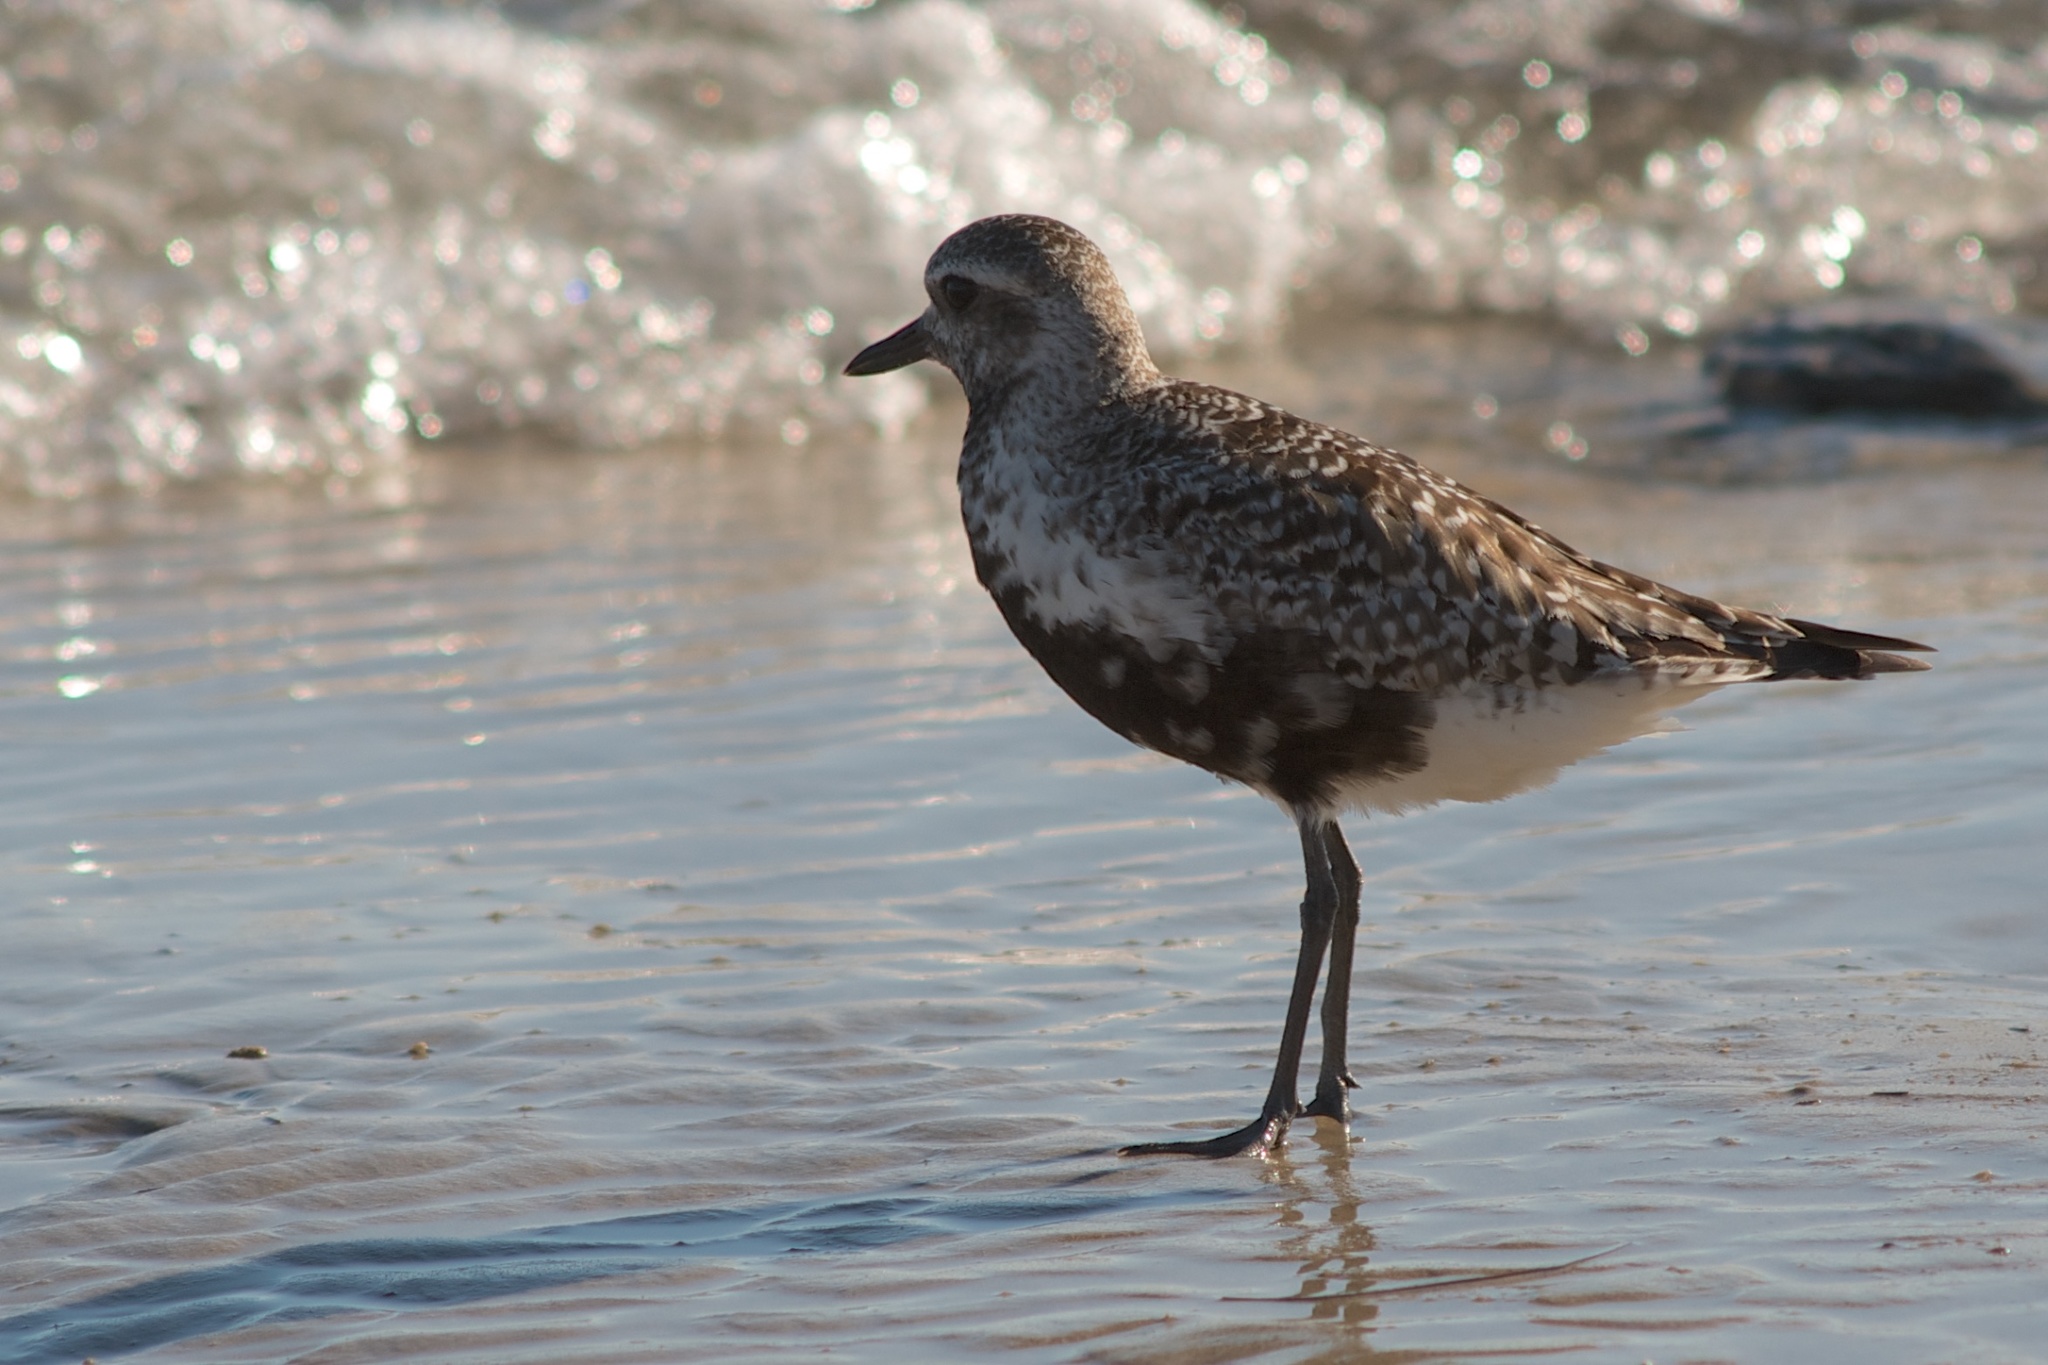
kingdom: Animalia
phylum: Chordata
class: Aves
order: Charadriiformes
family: Charadriidae
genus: Pluvialis
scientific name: Pluvialis squatarola
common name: Grey plover
